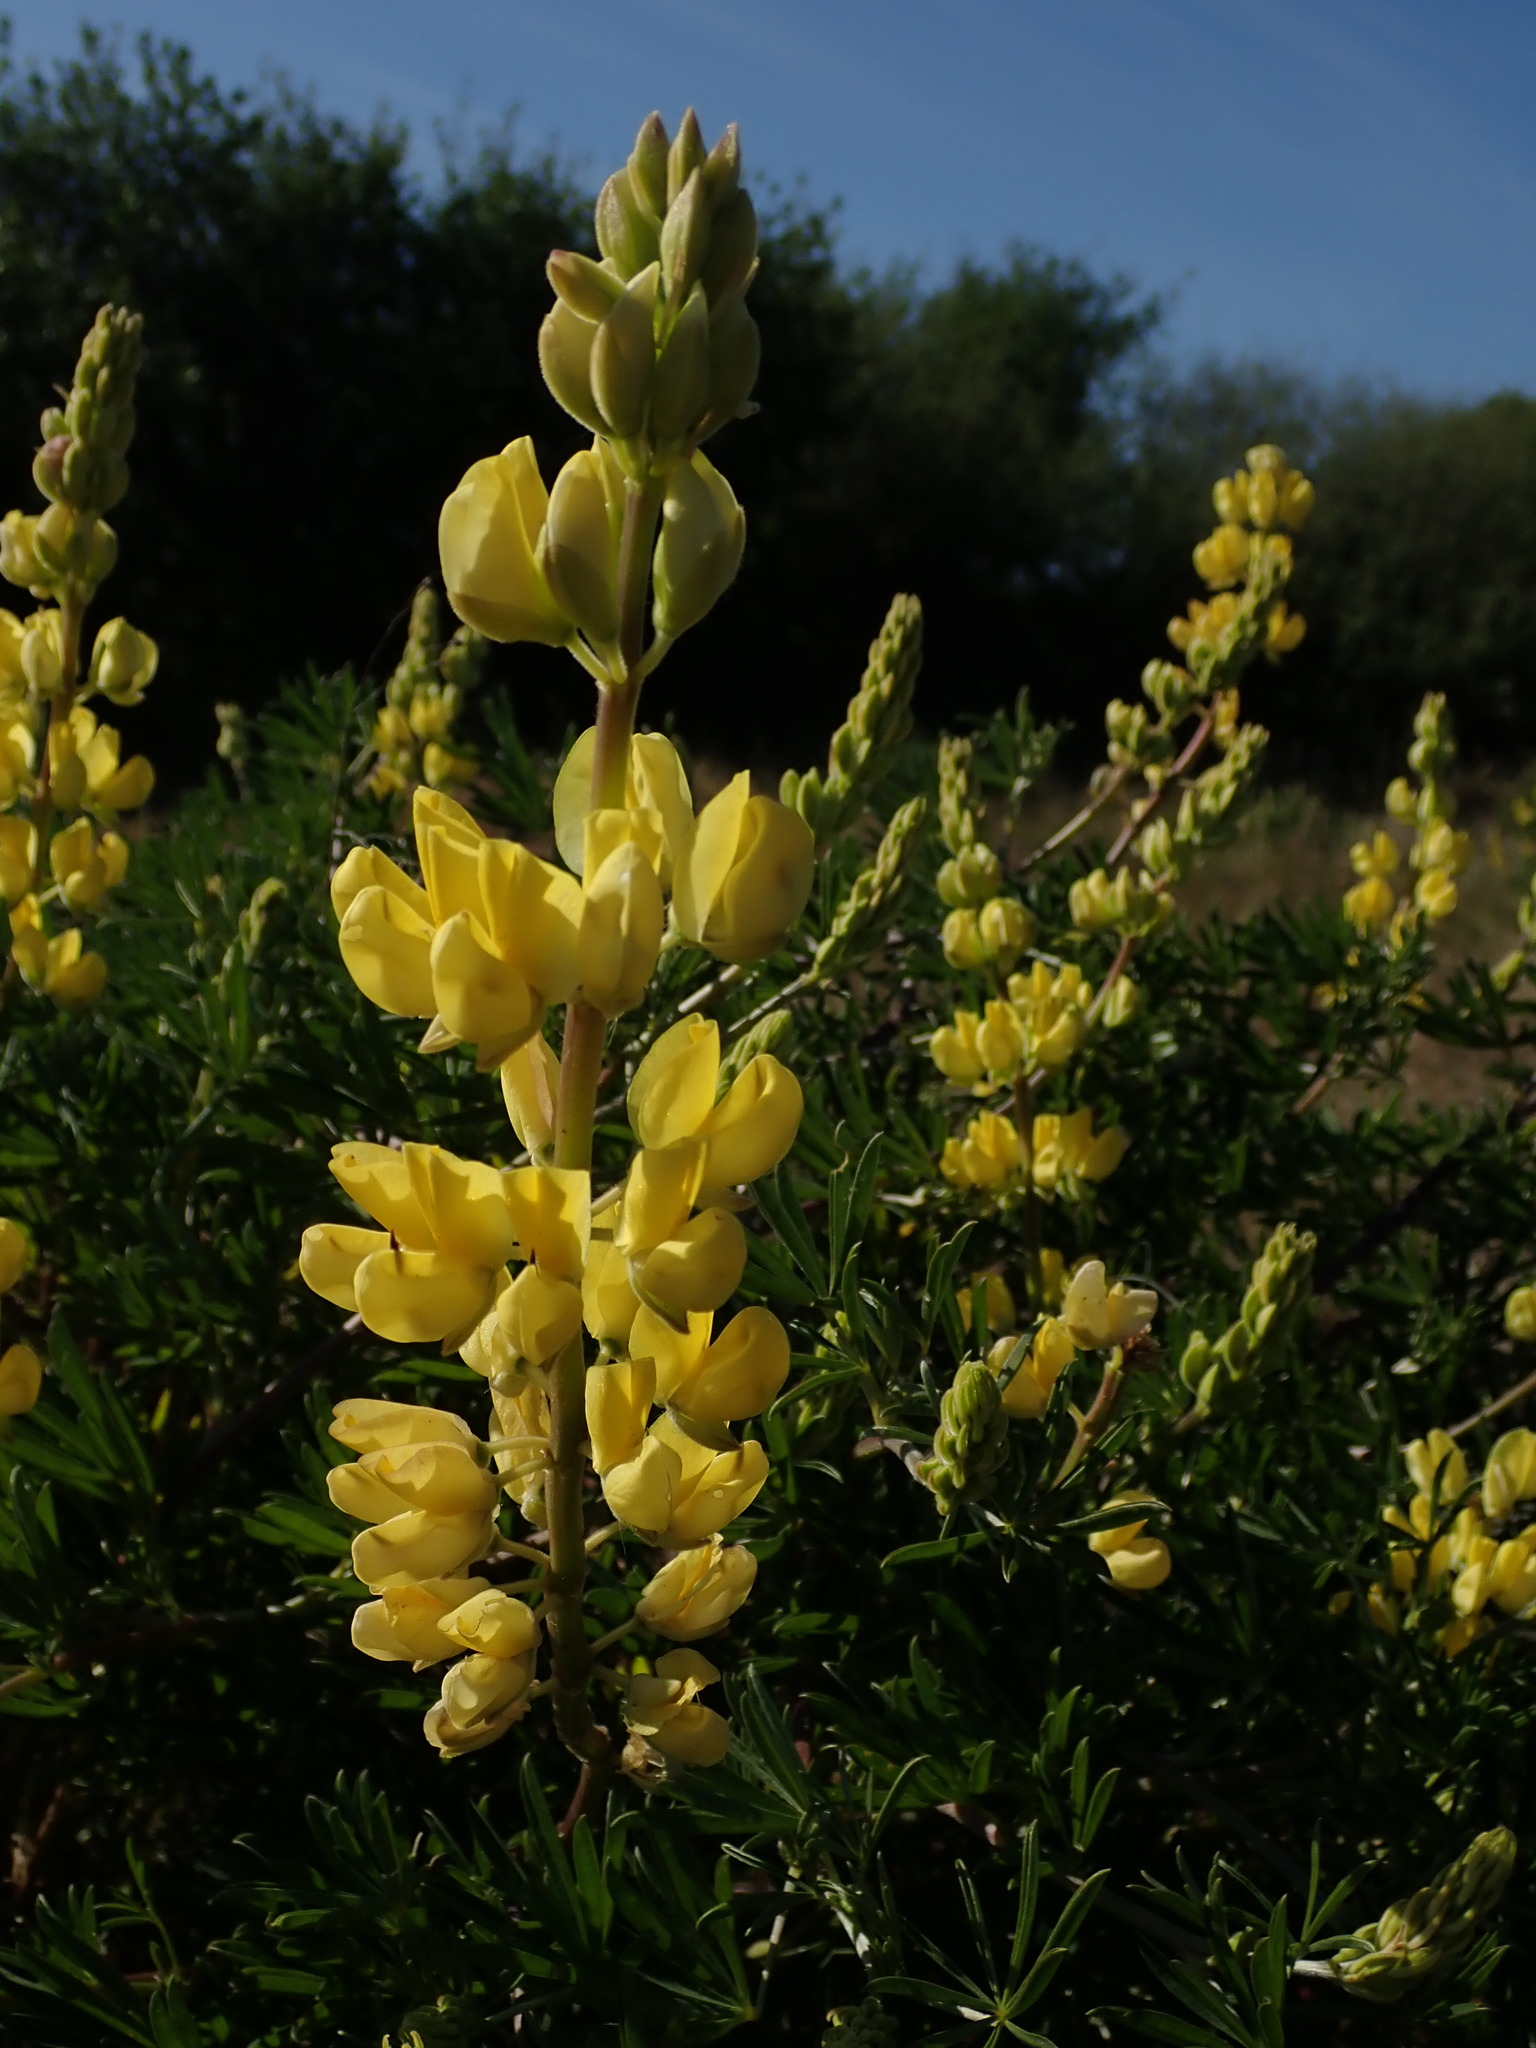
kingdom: Plantae
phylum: Tracheophyta
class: Magnoliopsida
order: Fabales
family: Fabaceae
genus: Lupinus
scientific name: Lupinus arboreus
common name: Yellow bush lupine
